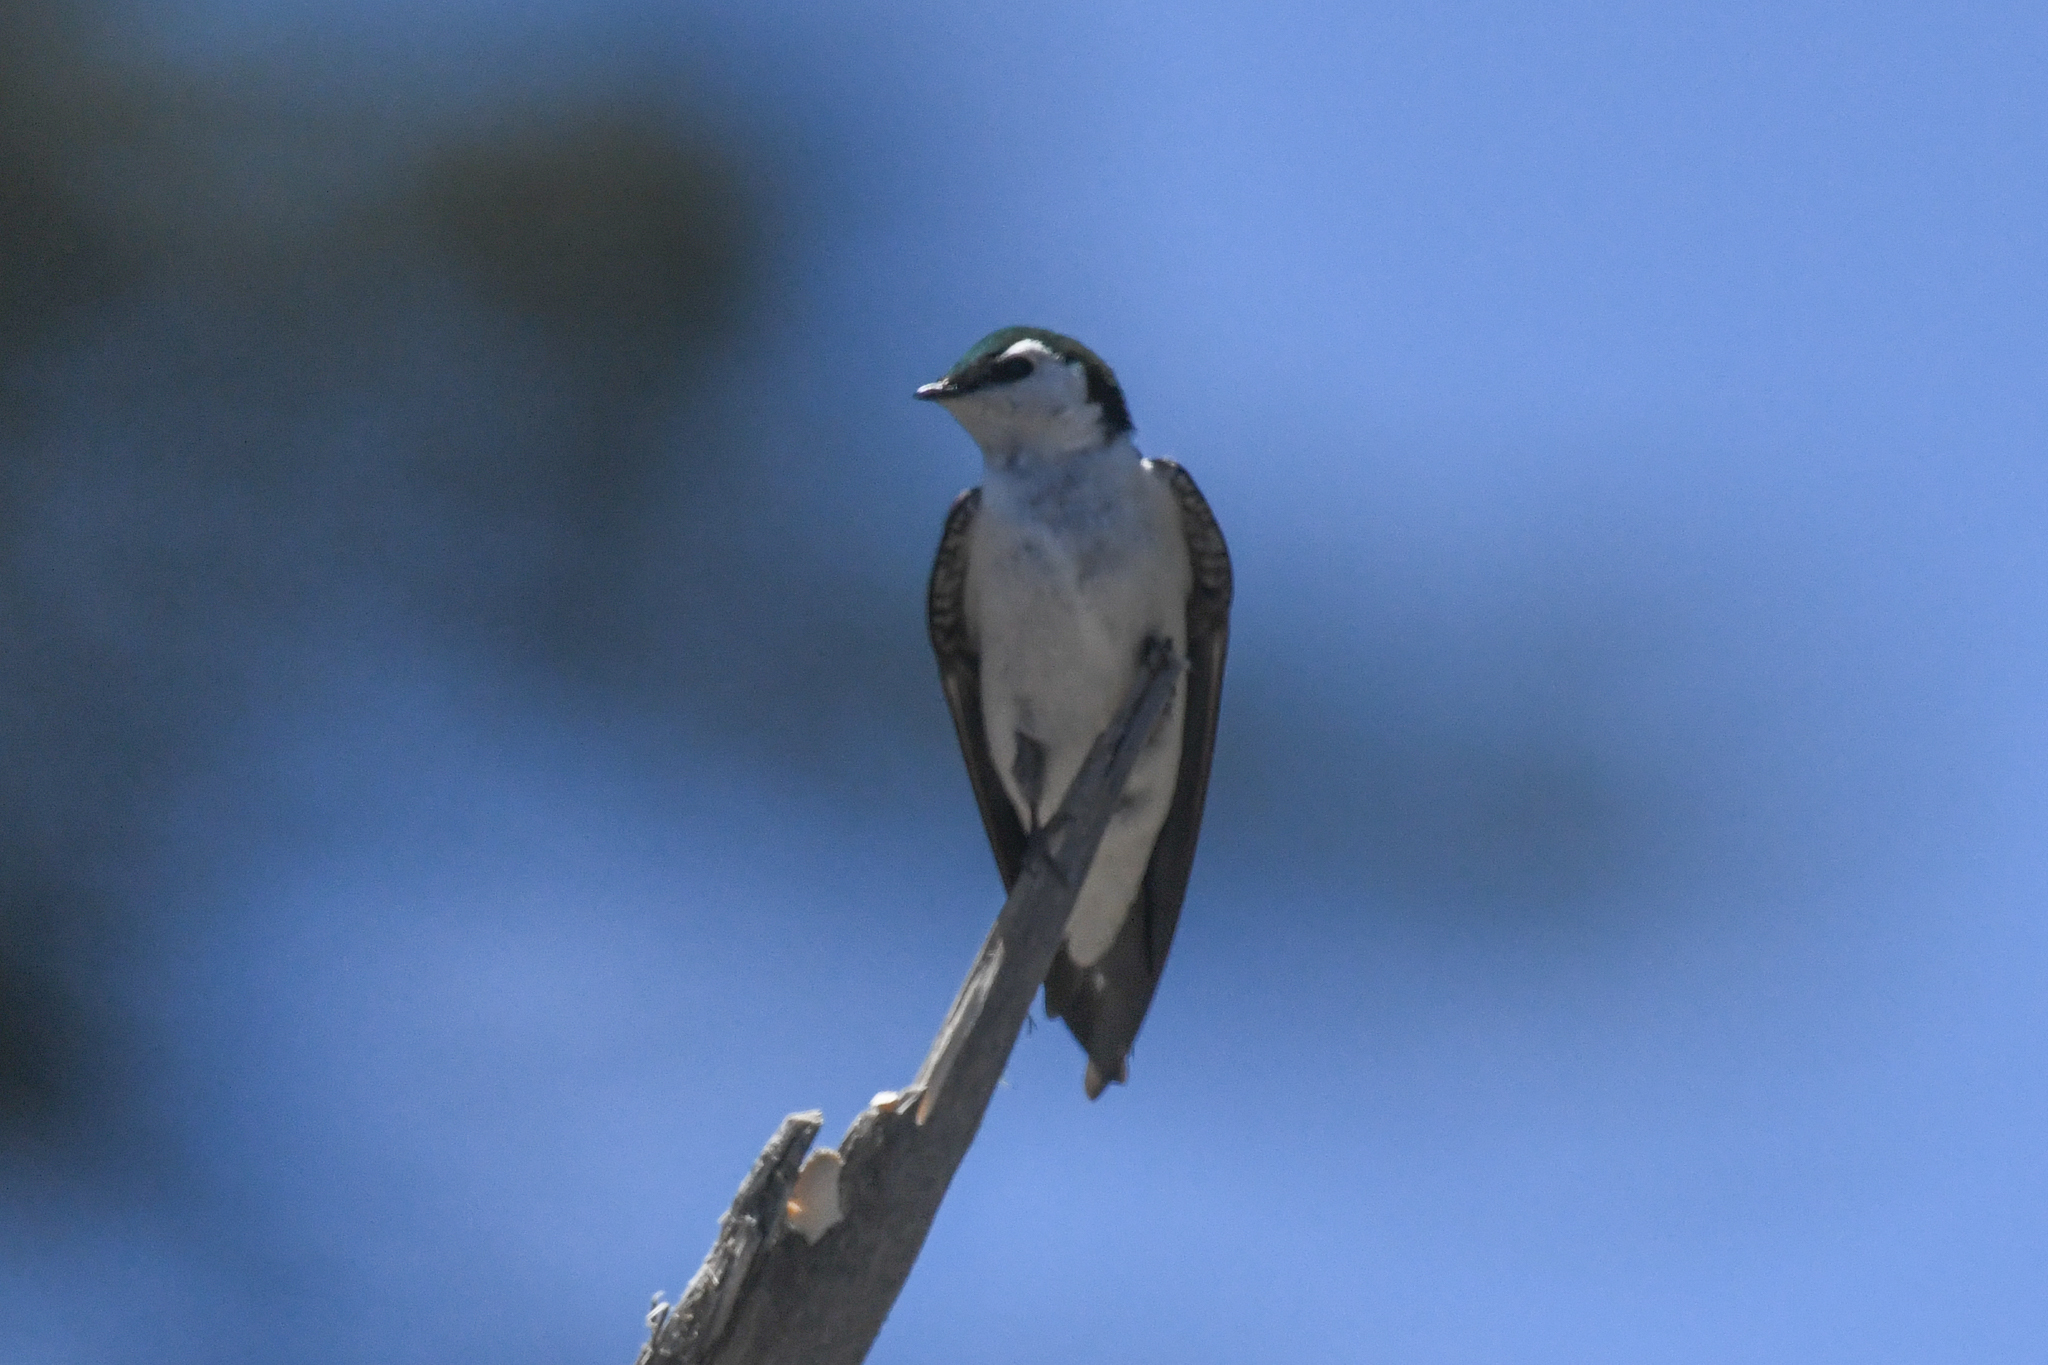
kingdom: Animalia
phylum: Chordata
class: Aves
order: Passeriformes
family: Hirundinidae
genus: Tachycineta
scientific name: Tachycineta thalassina
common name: Violet-green swallow
